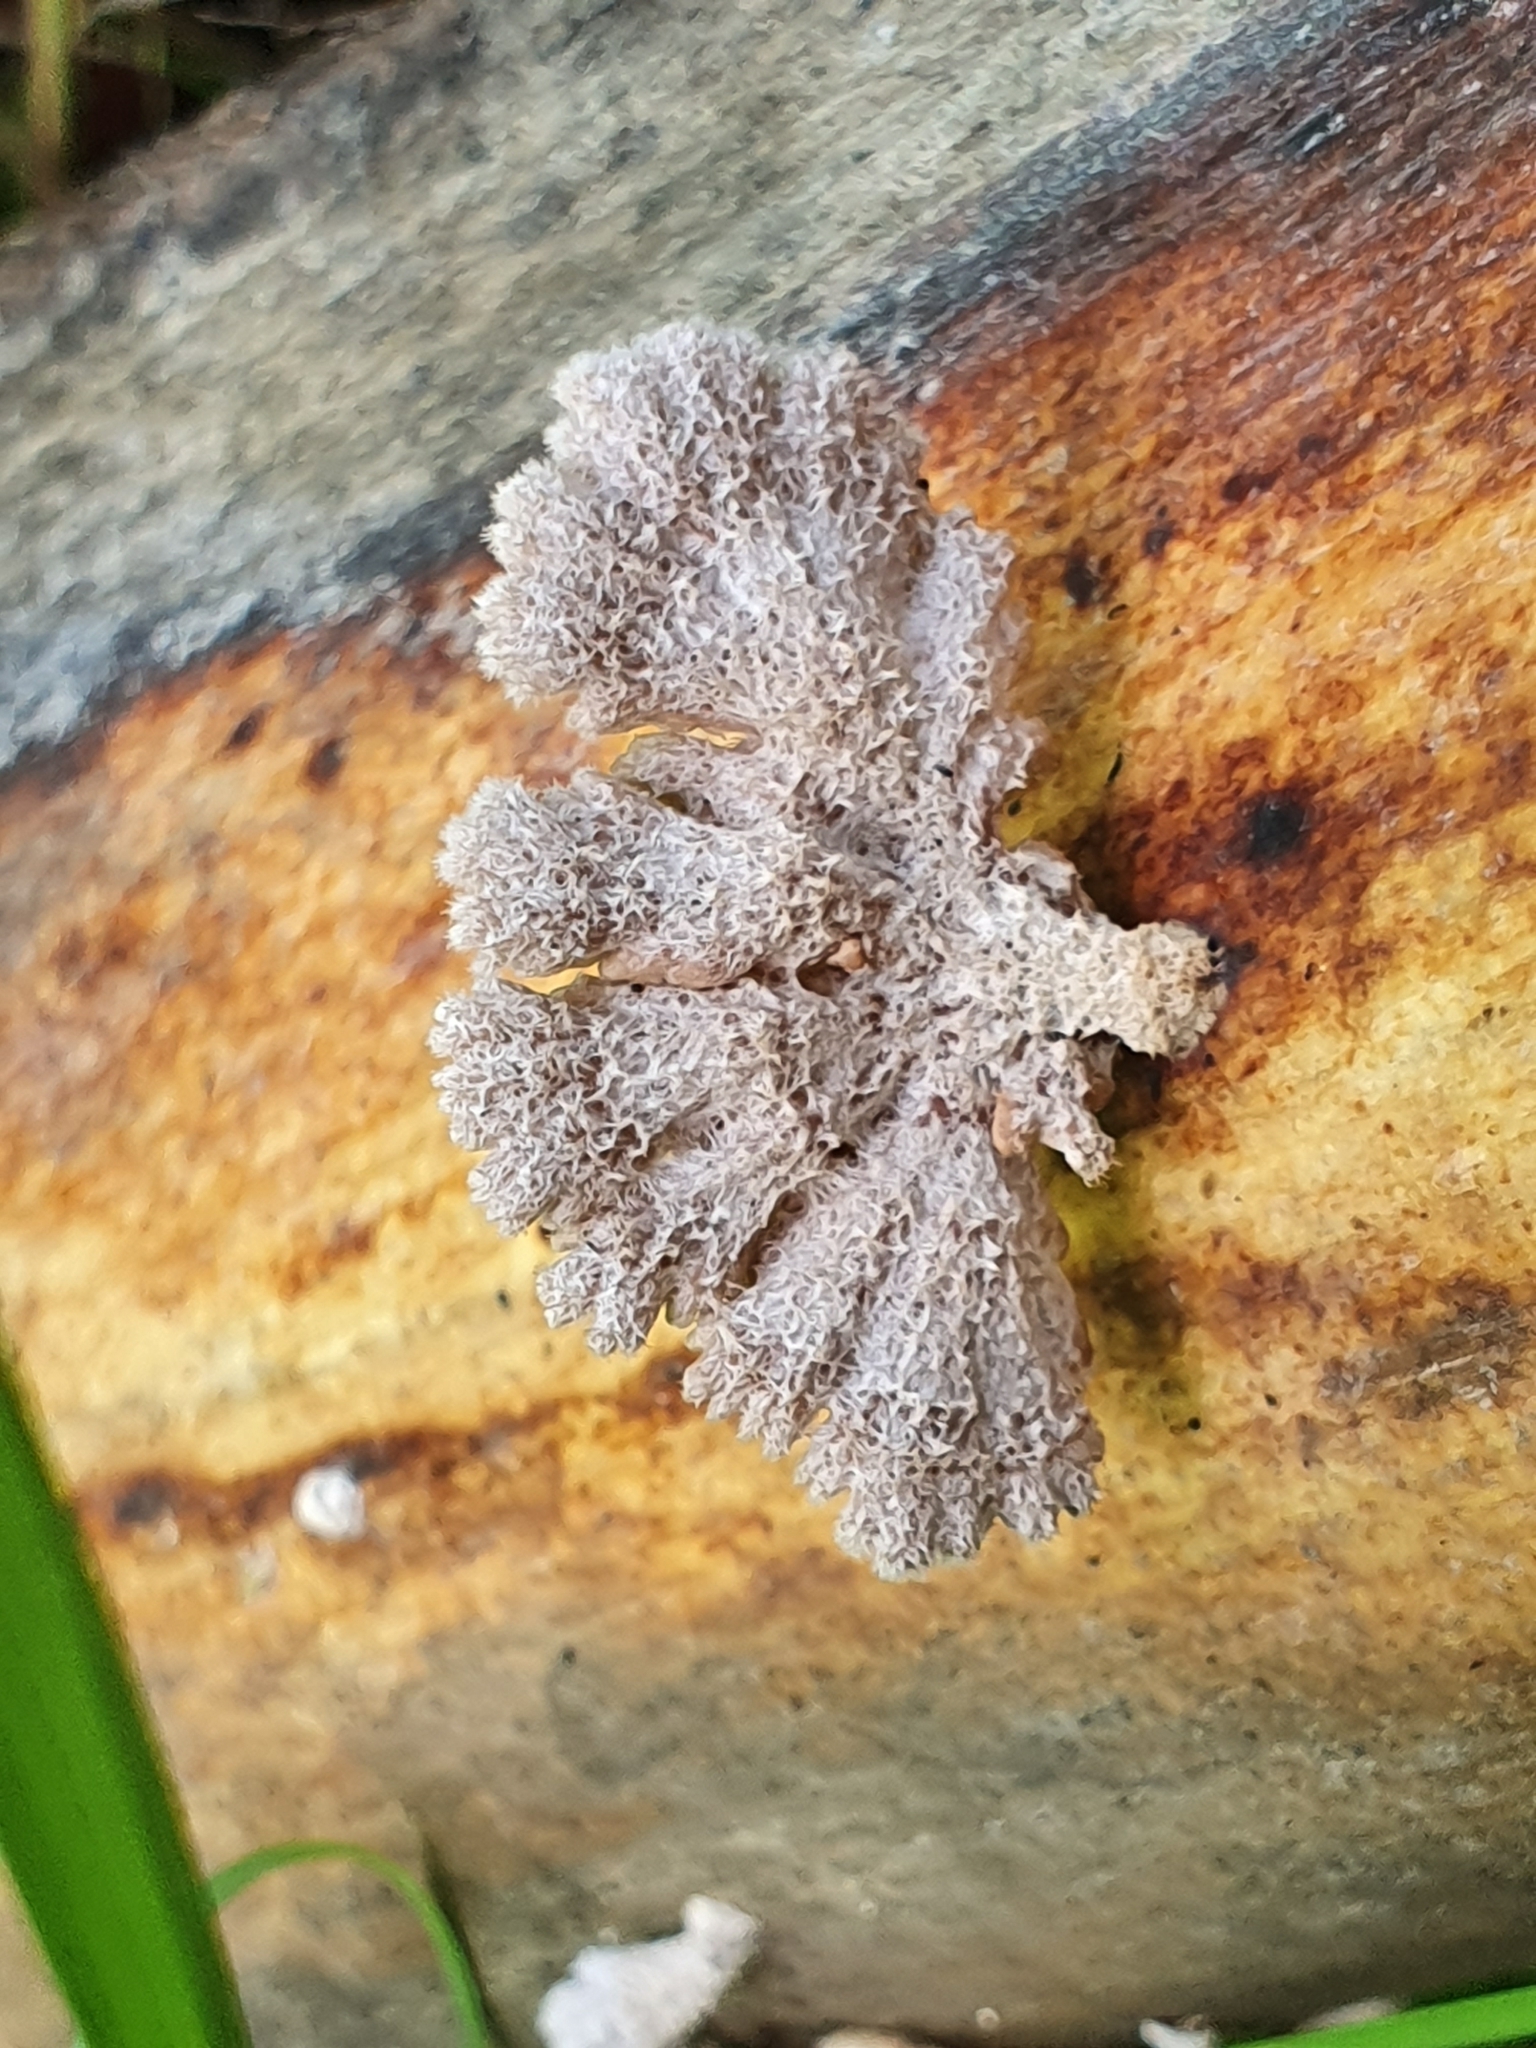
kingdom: Fungi
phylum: Basidiomycota
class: Agaricomycetes
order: Agaricales
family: Schizophyllaceae
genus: Schizophyllum
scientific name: Schizophyllum commune
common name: Common porecrust
